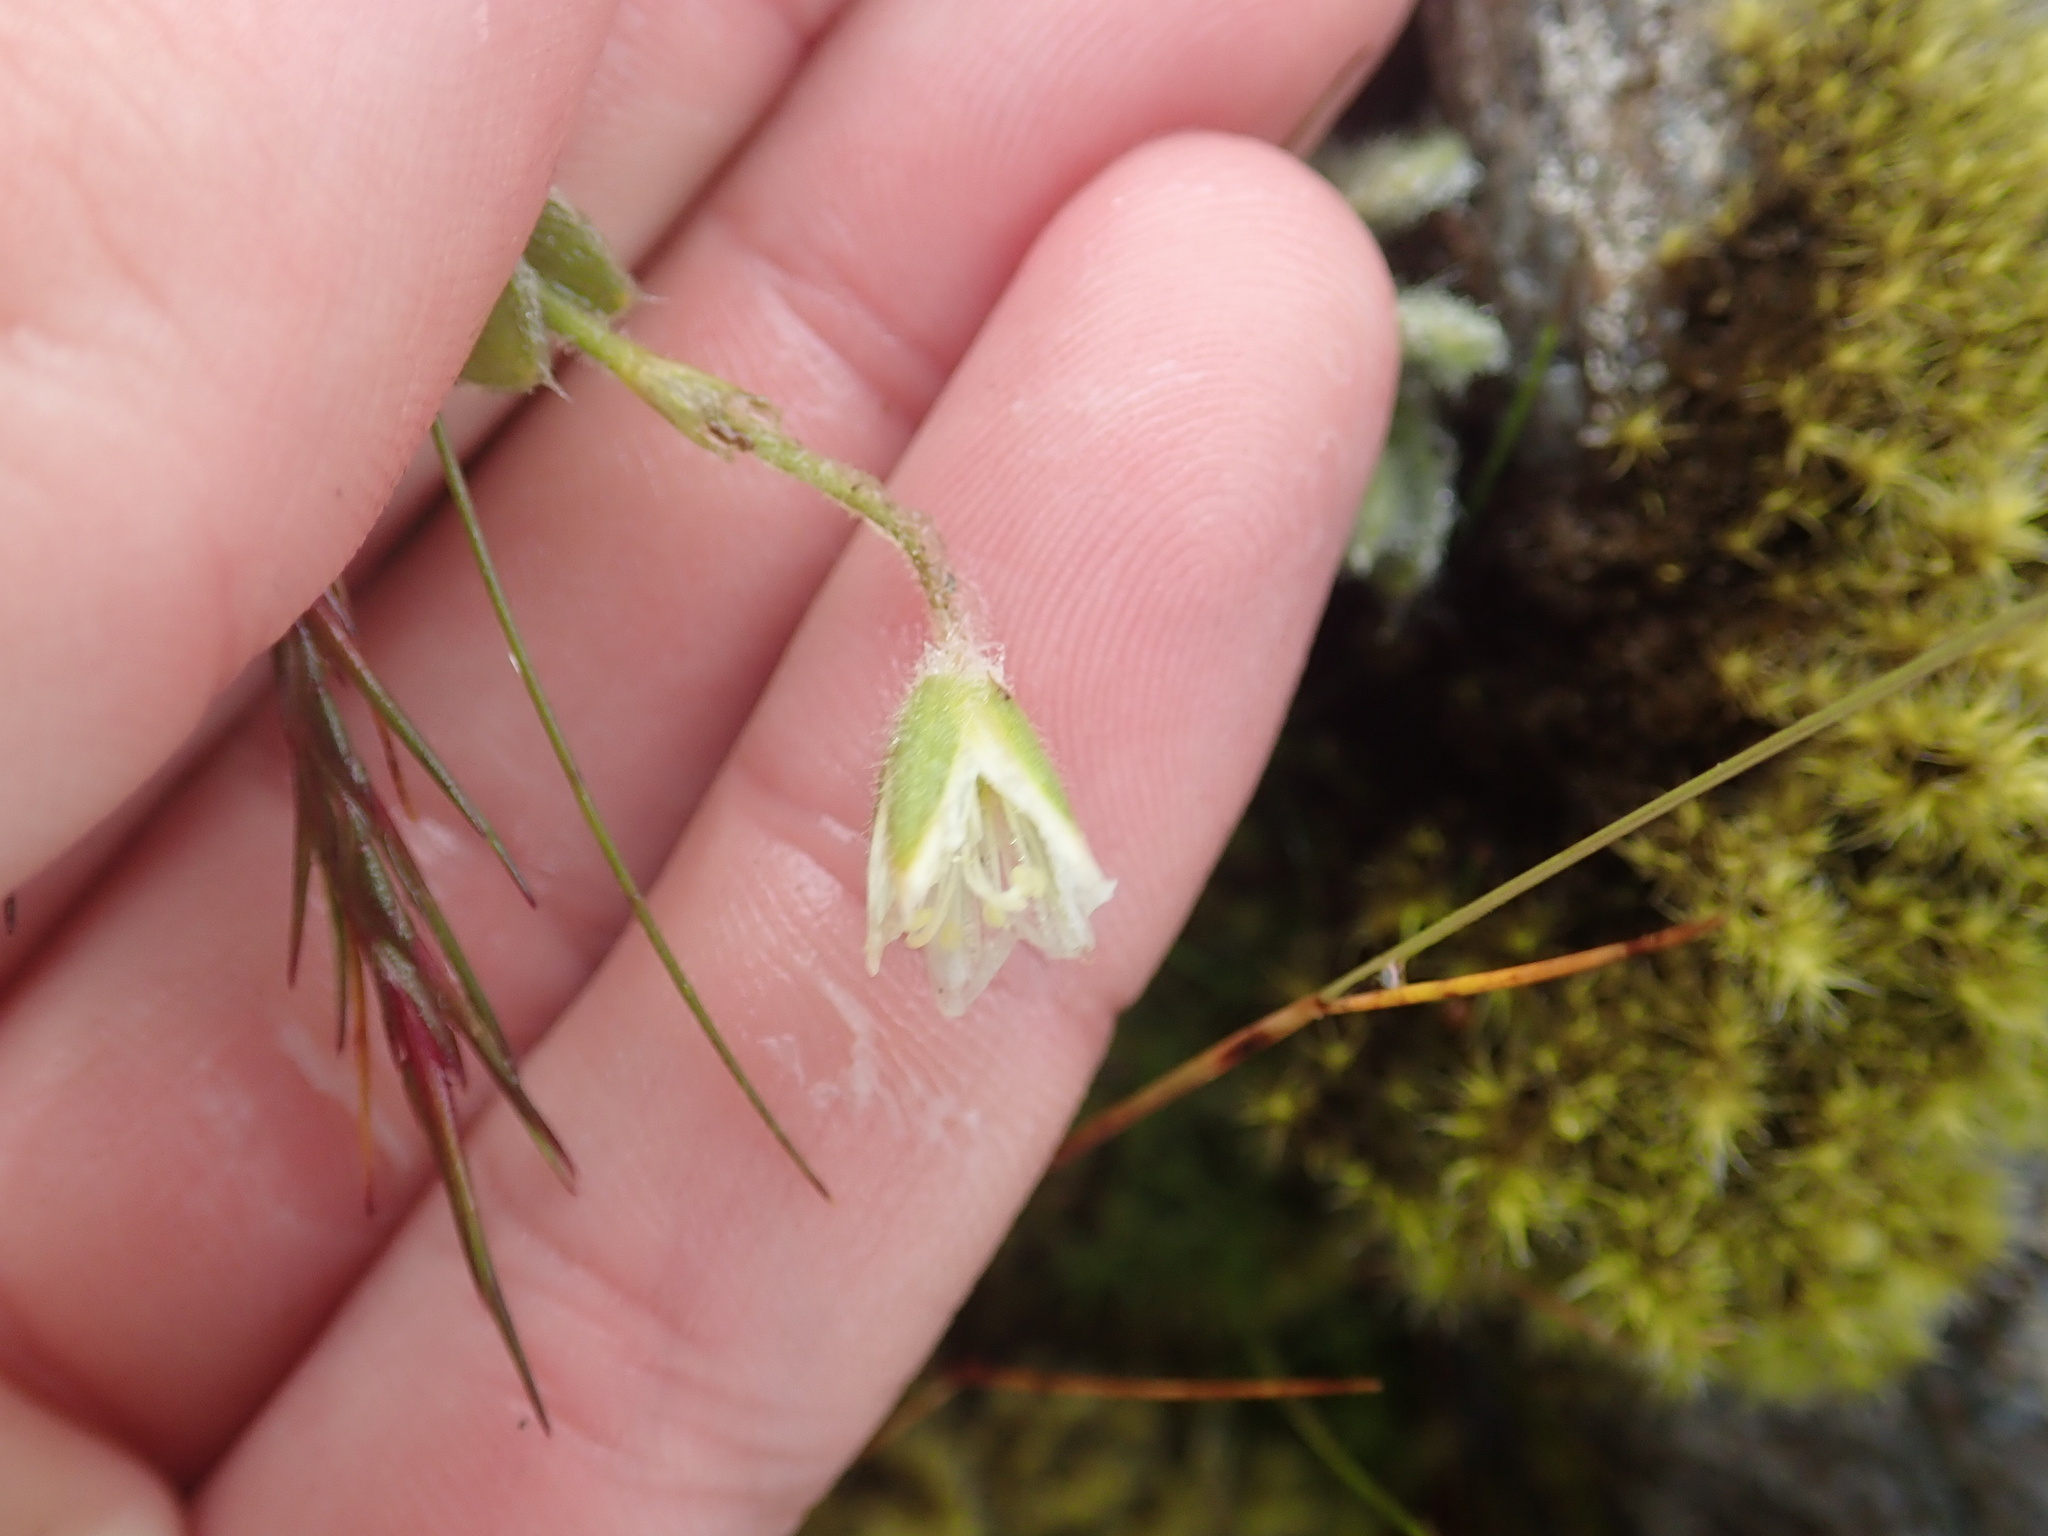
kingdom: Plantae
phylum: Tracheophyta
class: Magnoliopsida
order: Caryophyllales
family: Caryophyllaceae
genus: Cerastium
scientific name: Cerastium alpinum
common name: Alpine mouse-ear
